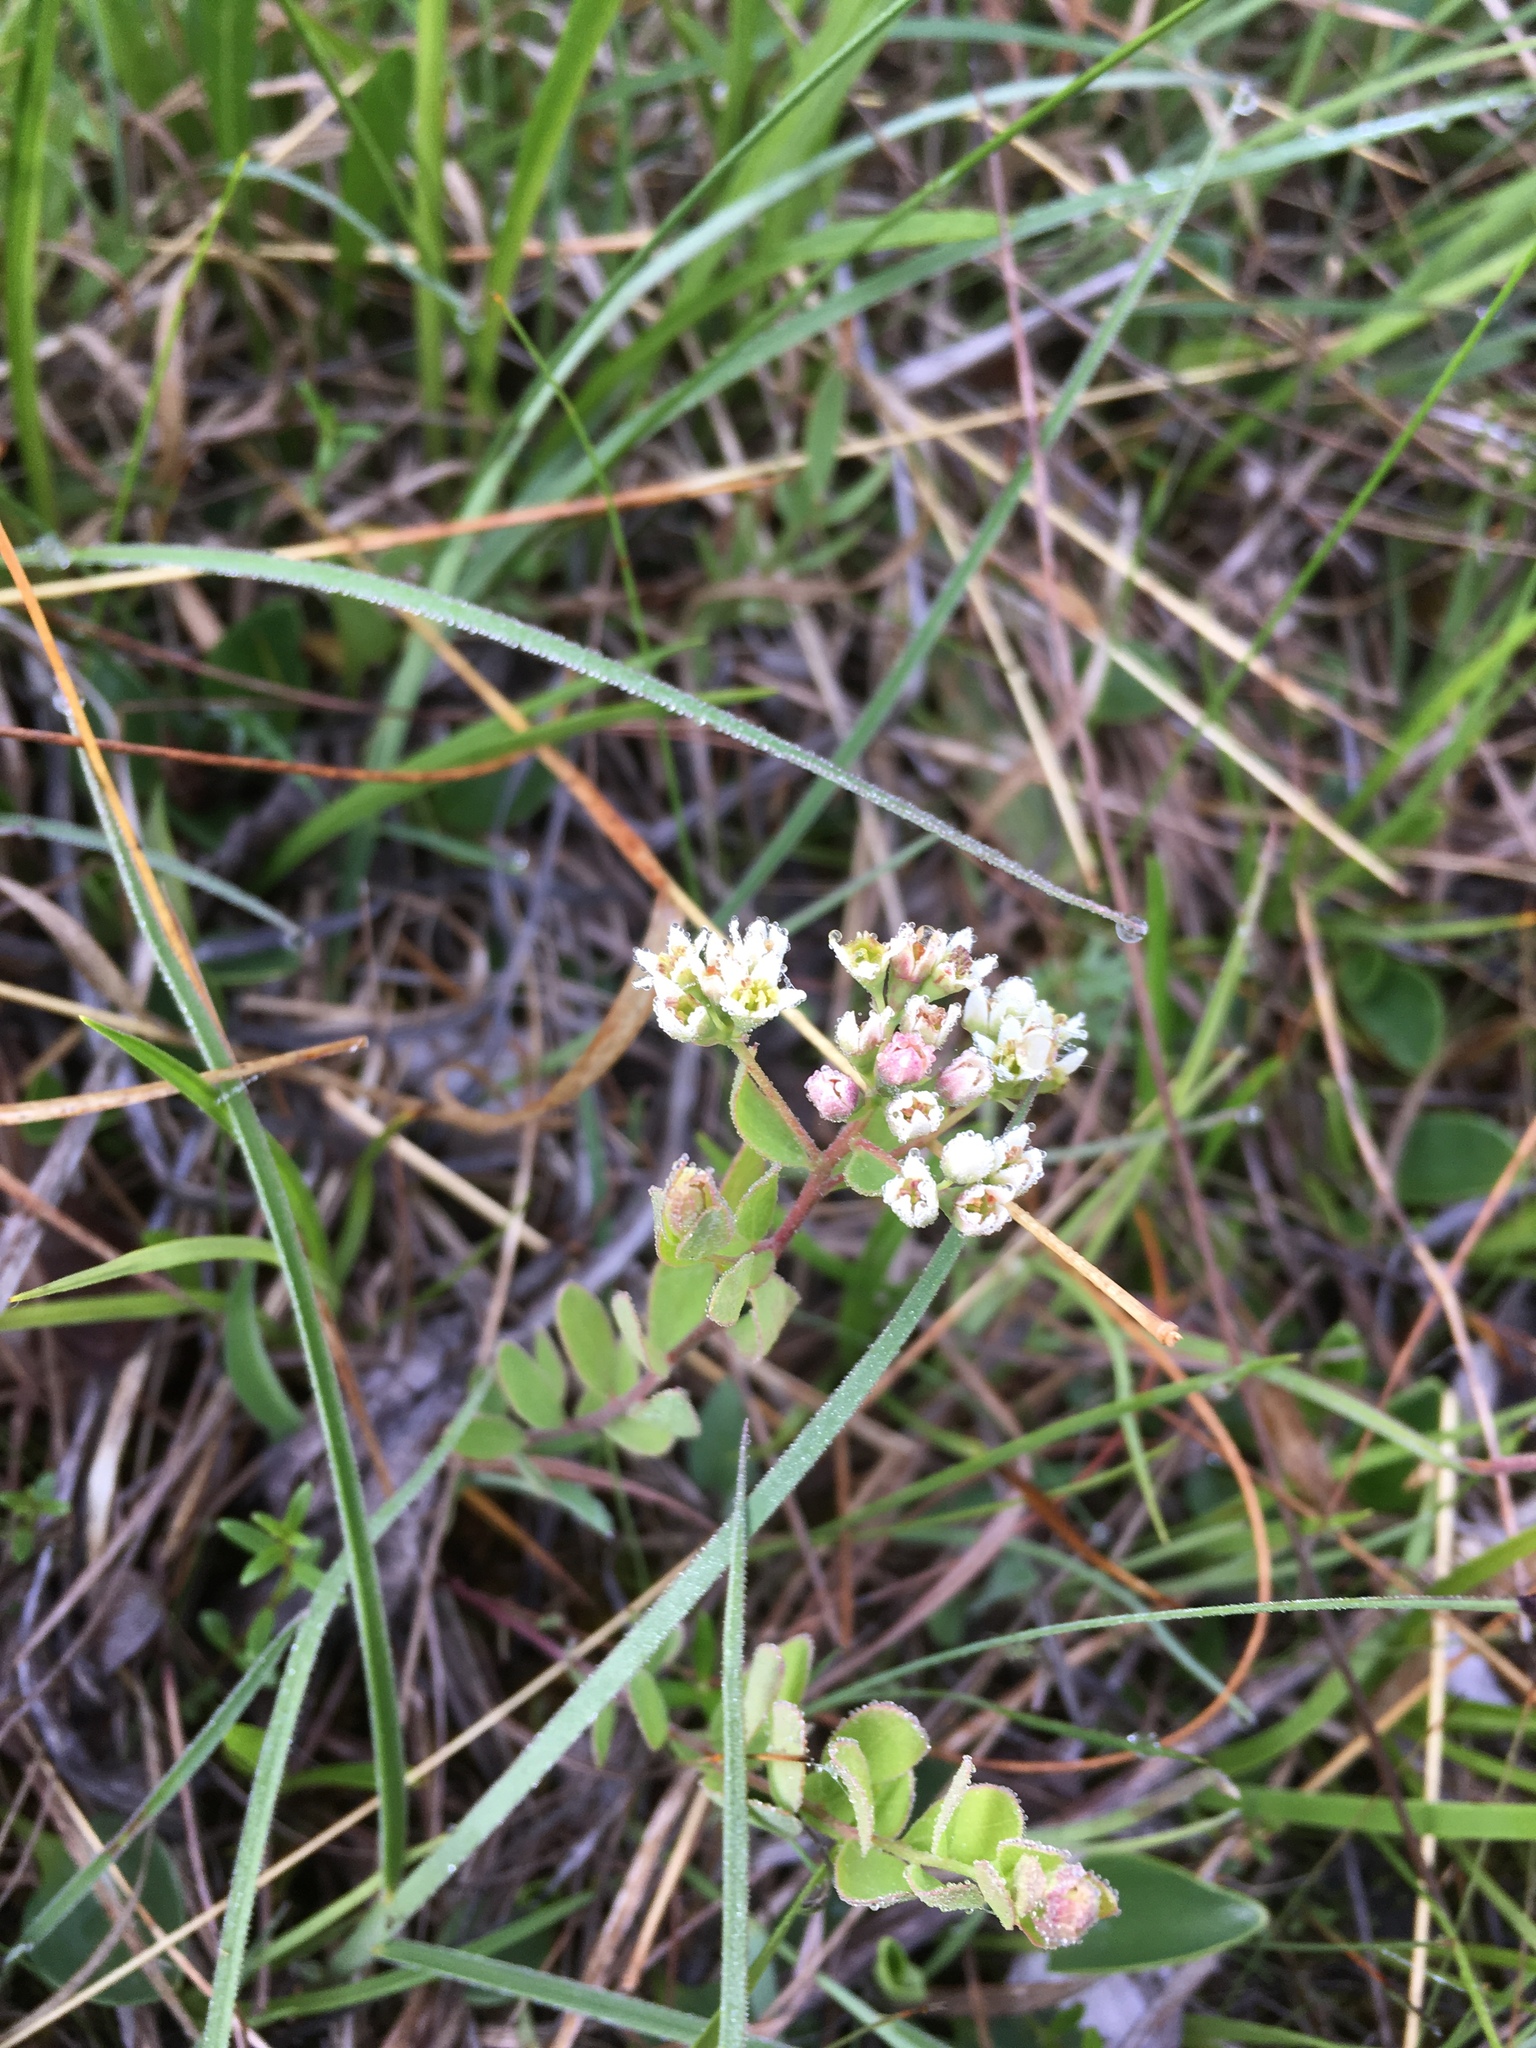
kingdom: Plantae
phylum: Tracheophyta
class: Magnoliopsida
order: Santalales
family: Comandraceae
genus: Comandra
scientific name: Comandra umbellata
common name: Bastard toadflax
